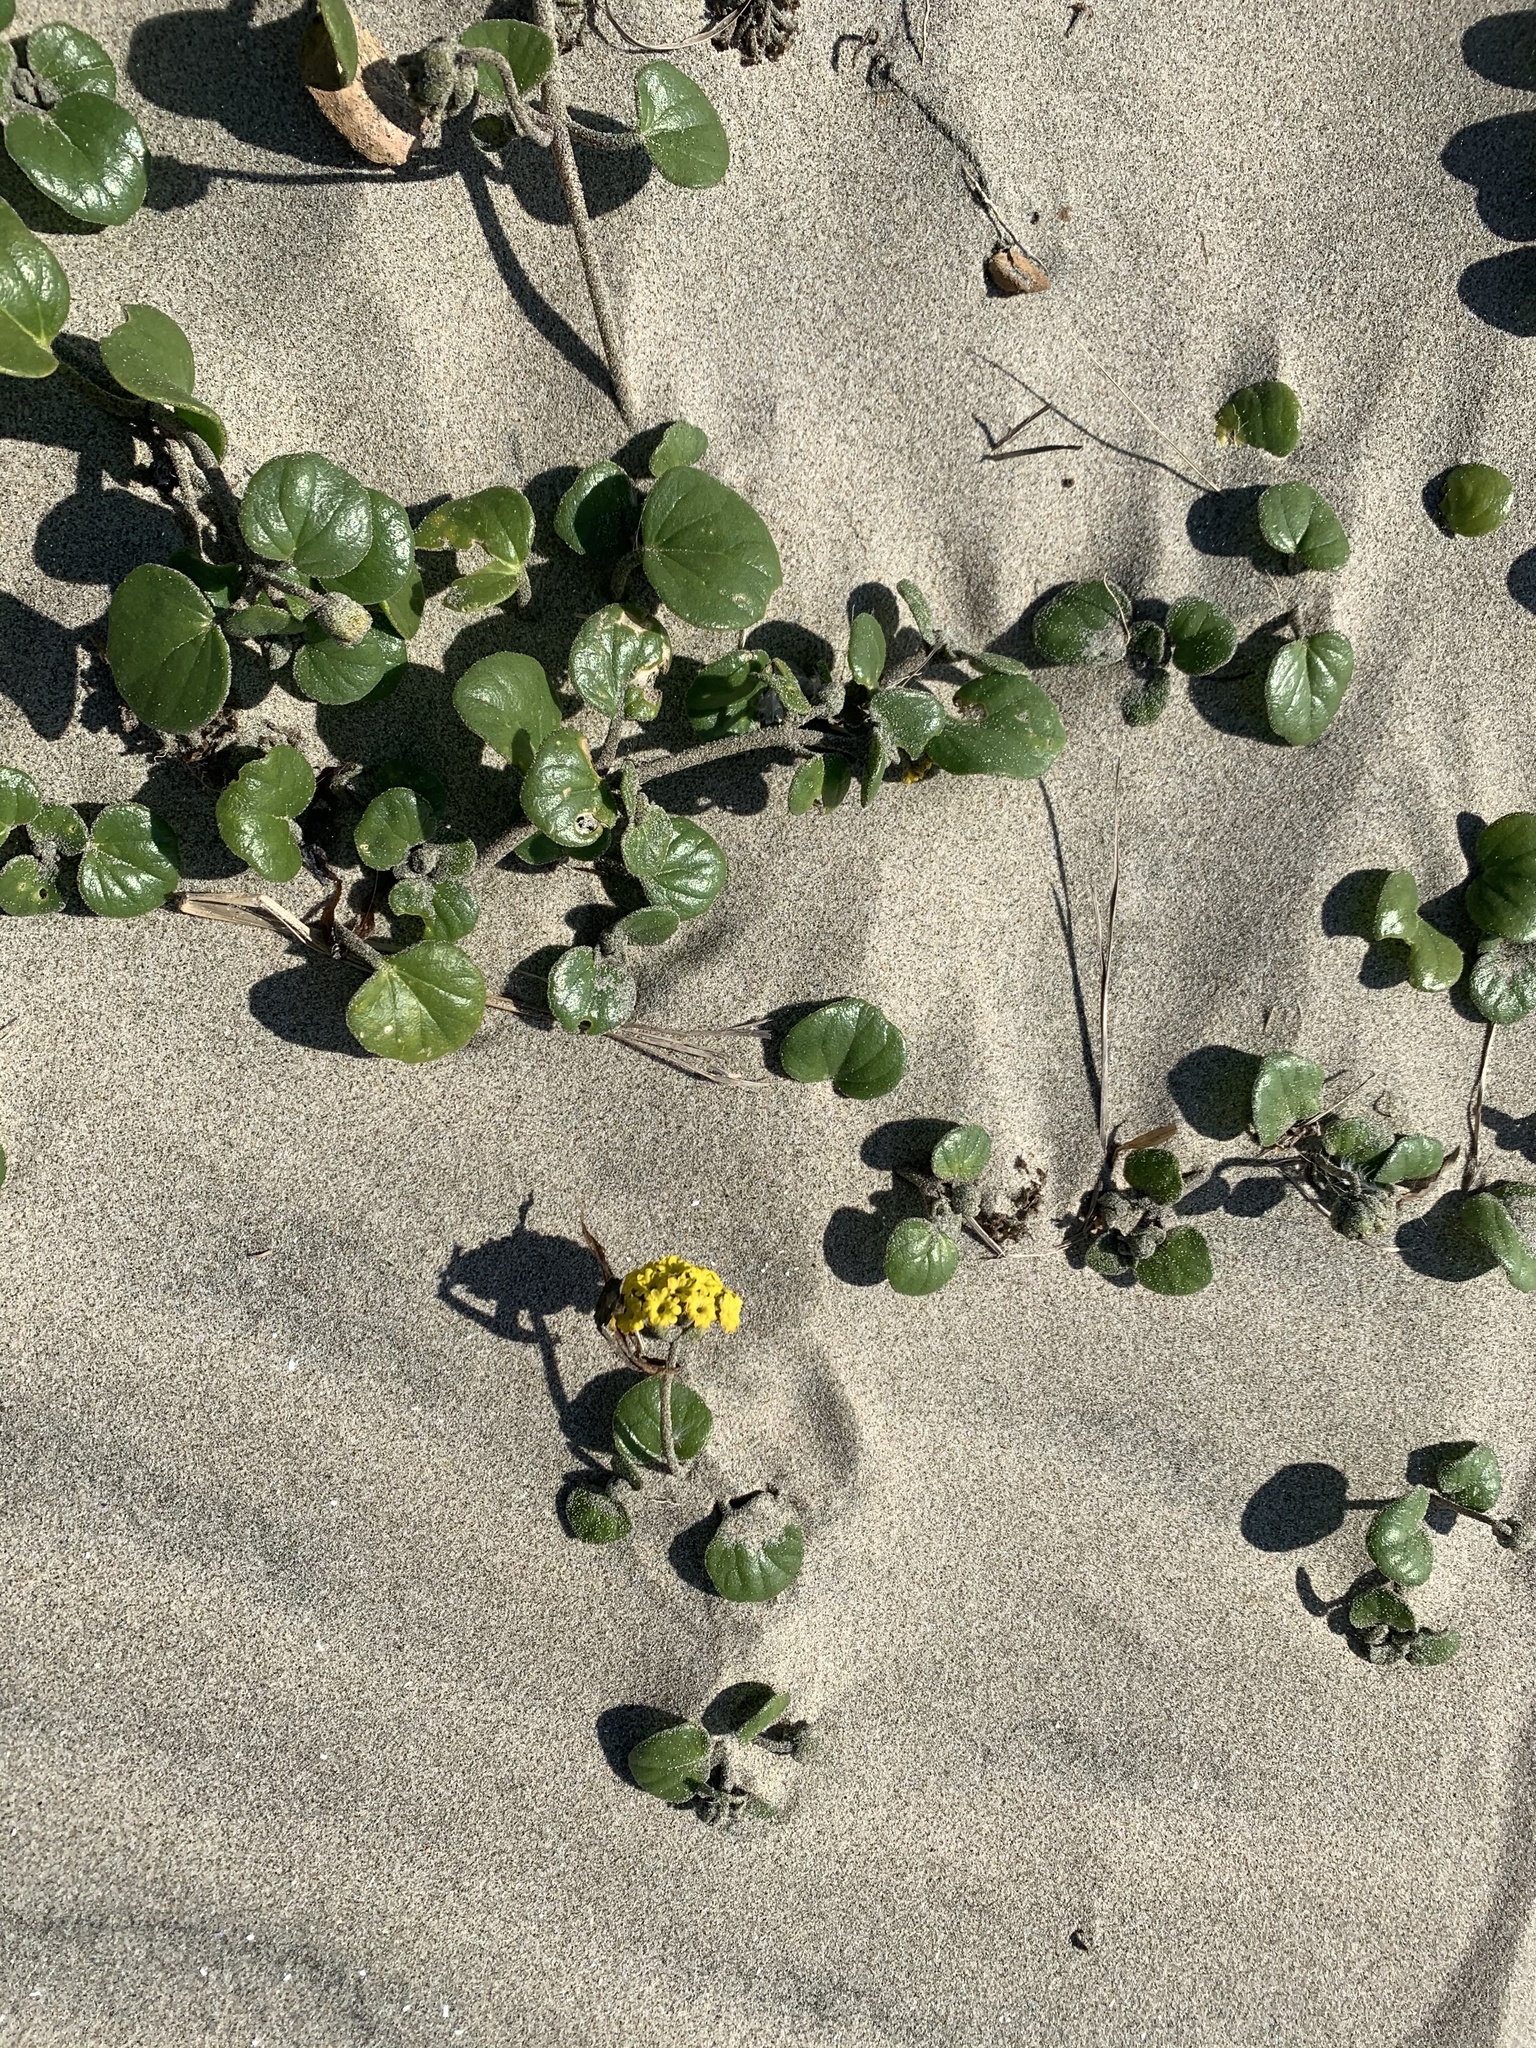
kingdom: Plantae
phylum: Tracheophyta
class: Magnoliopsida
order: Caryophyllales
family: Nyctaginaceae
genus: Abronia
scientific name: Abronia latifolia
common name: Yellow sand-verbena
